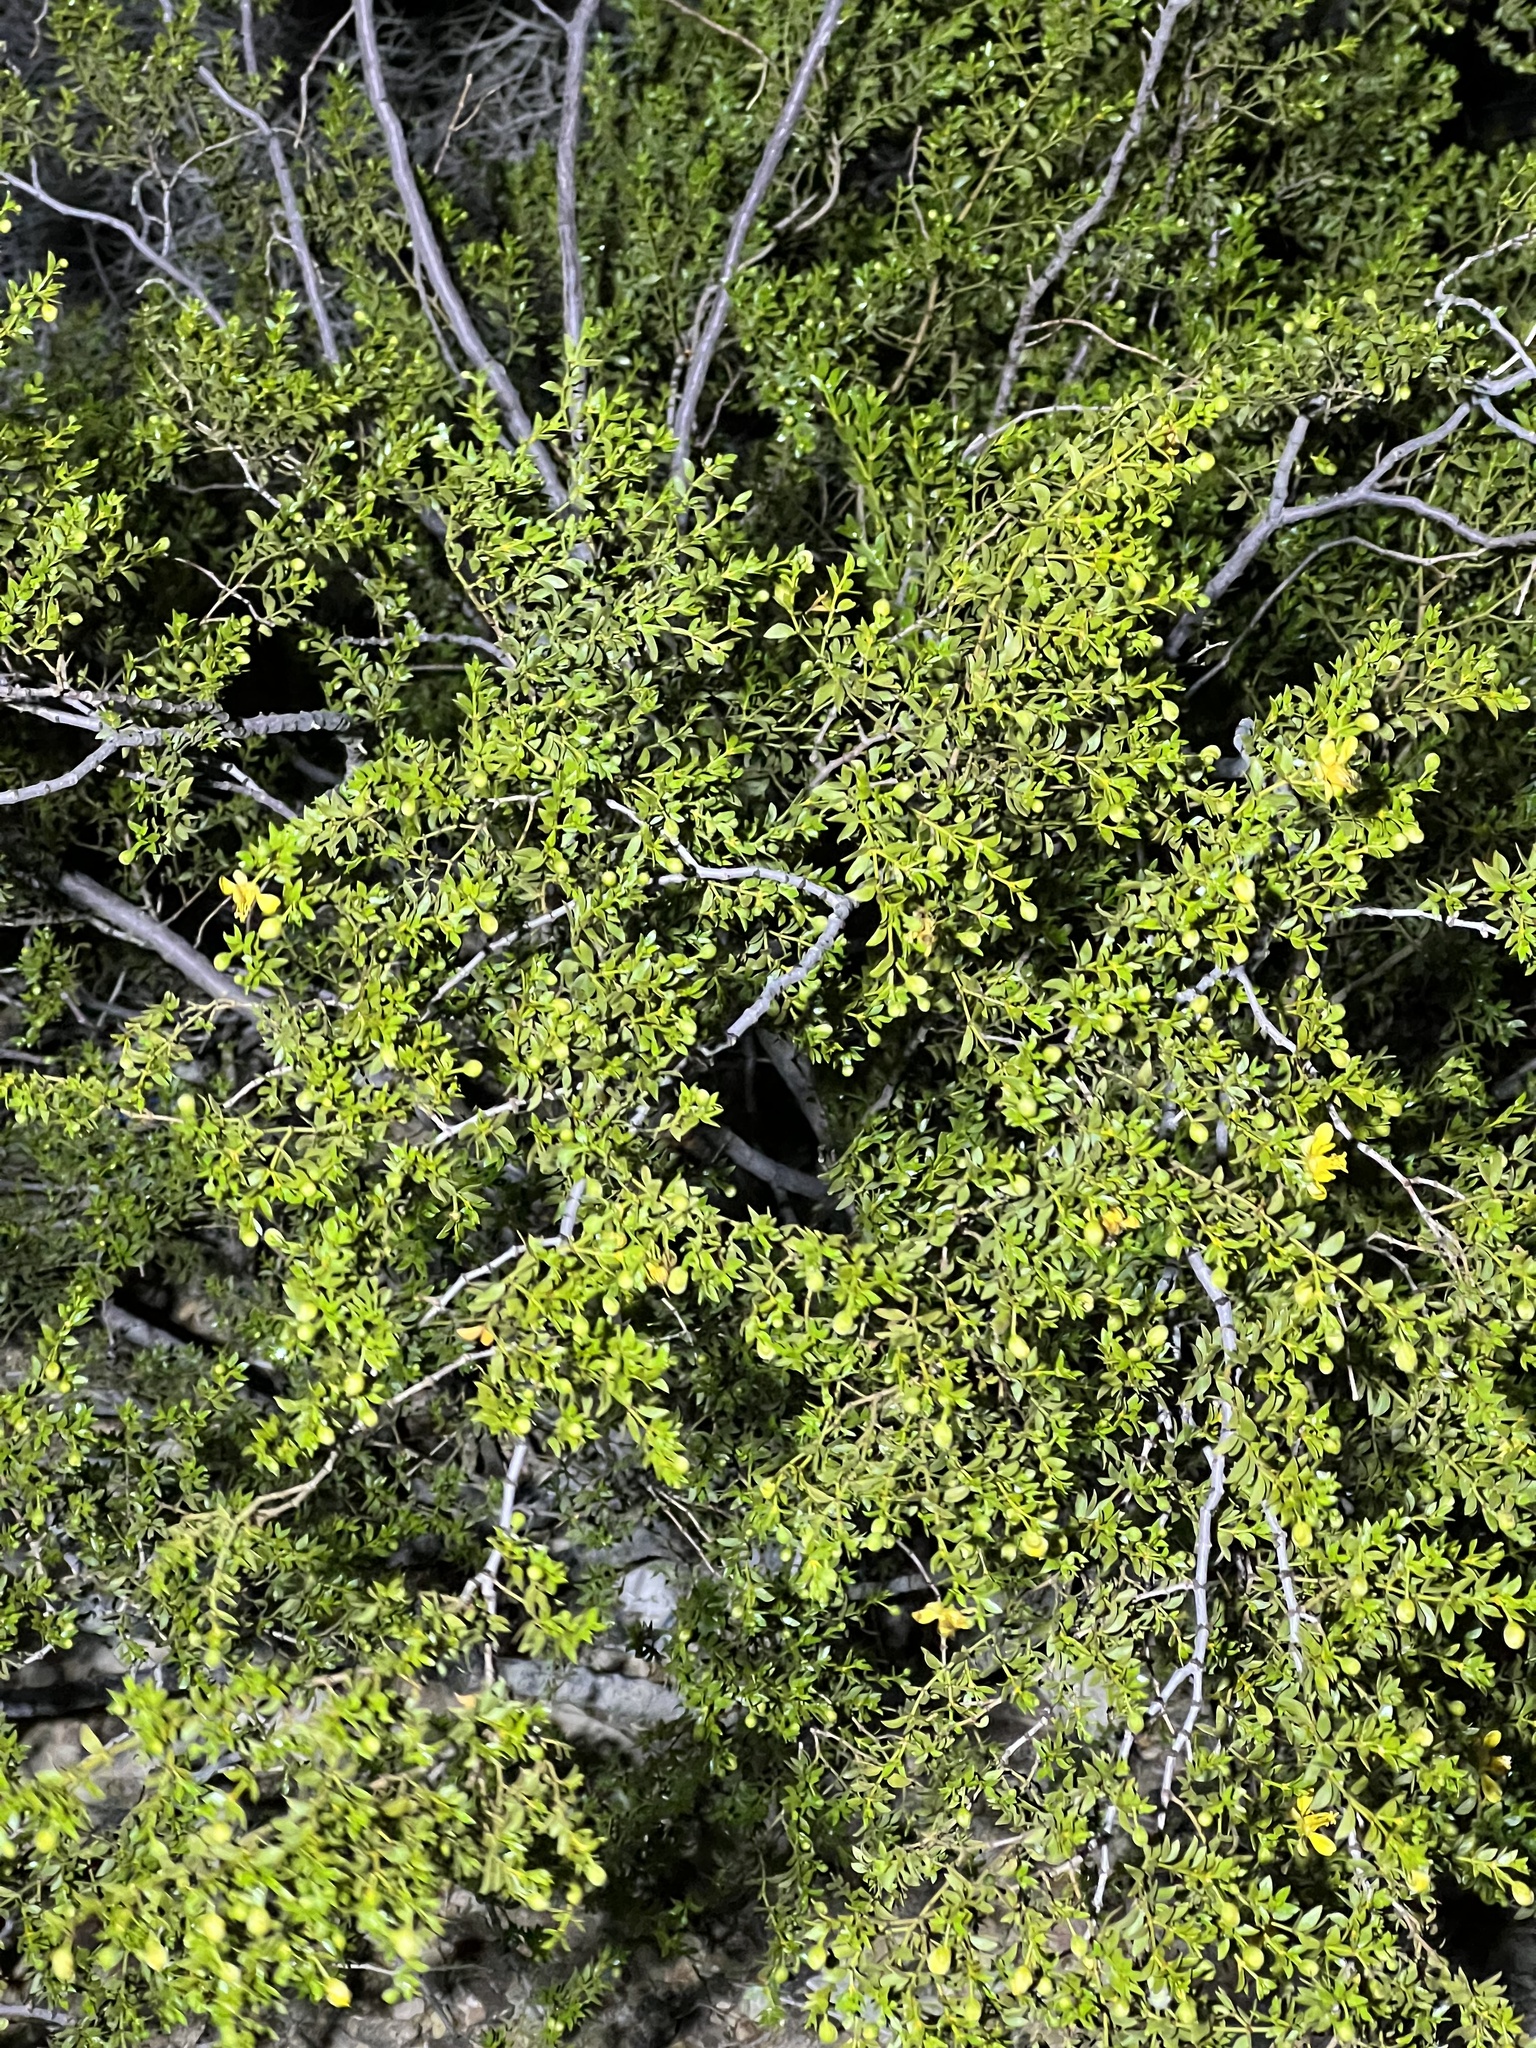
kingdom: Plantae
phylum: Tracheophyta
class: Magnoliopsida
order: Zygophyllales
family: Zygophyllaceae
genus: Larrea
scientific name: Larrea tridentata
